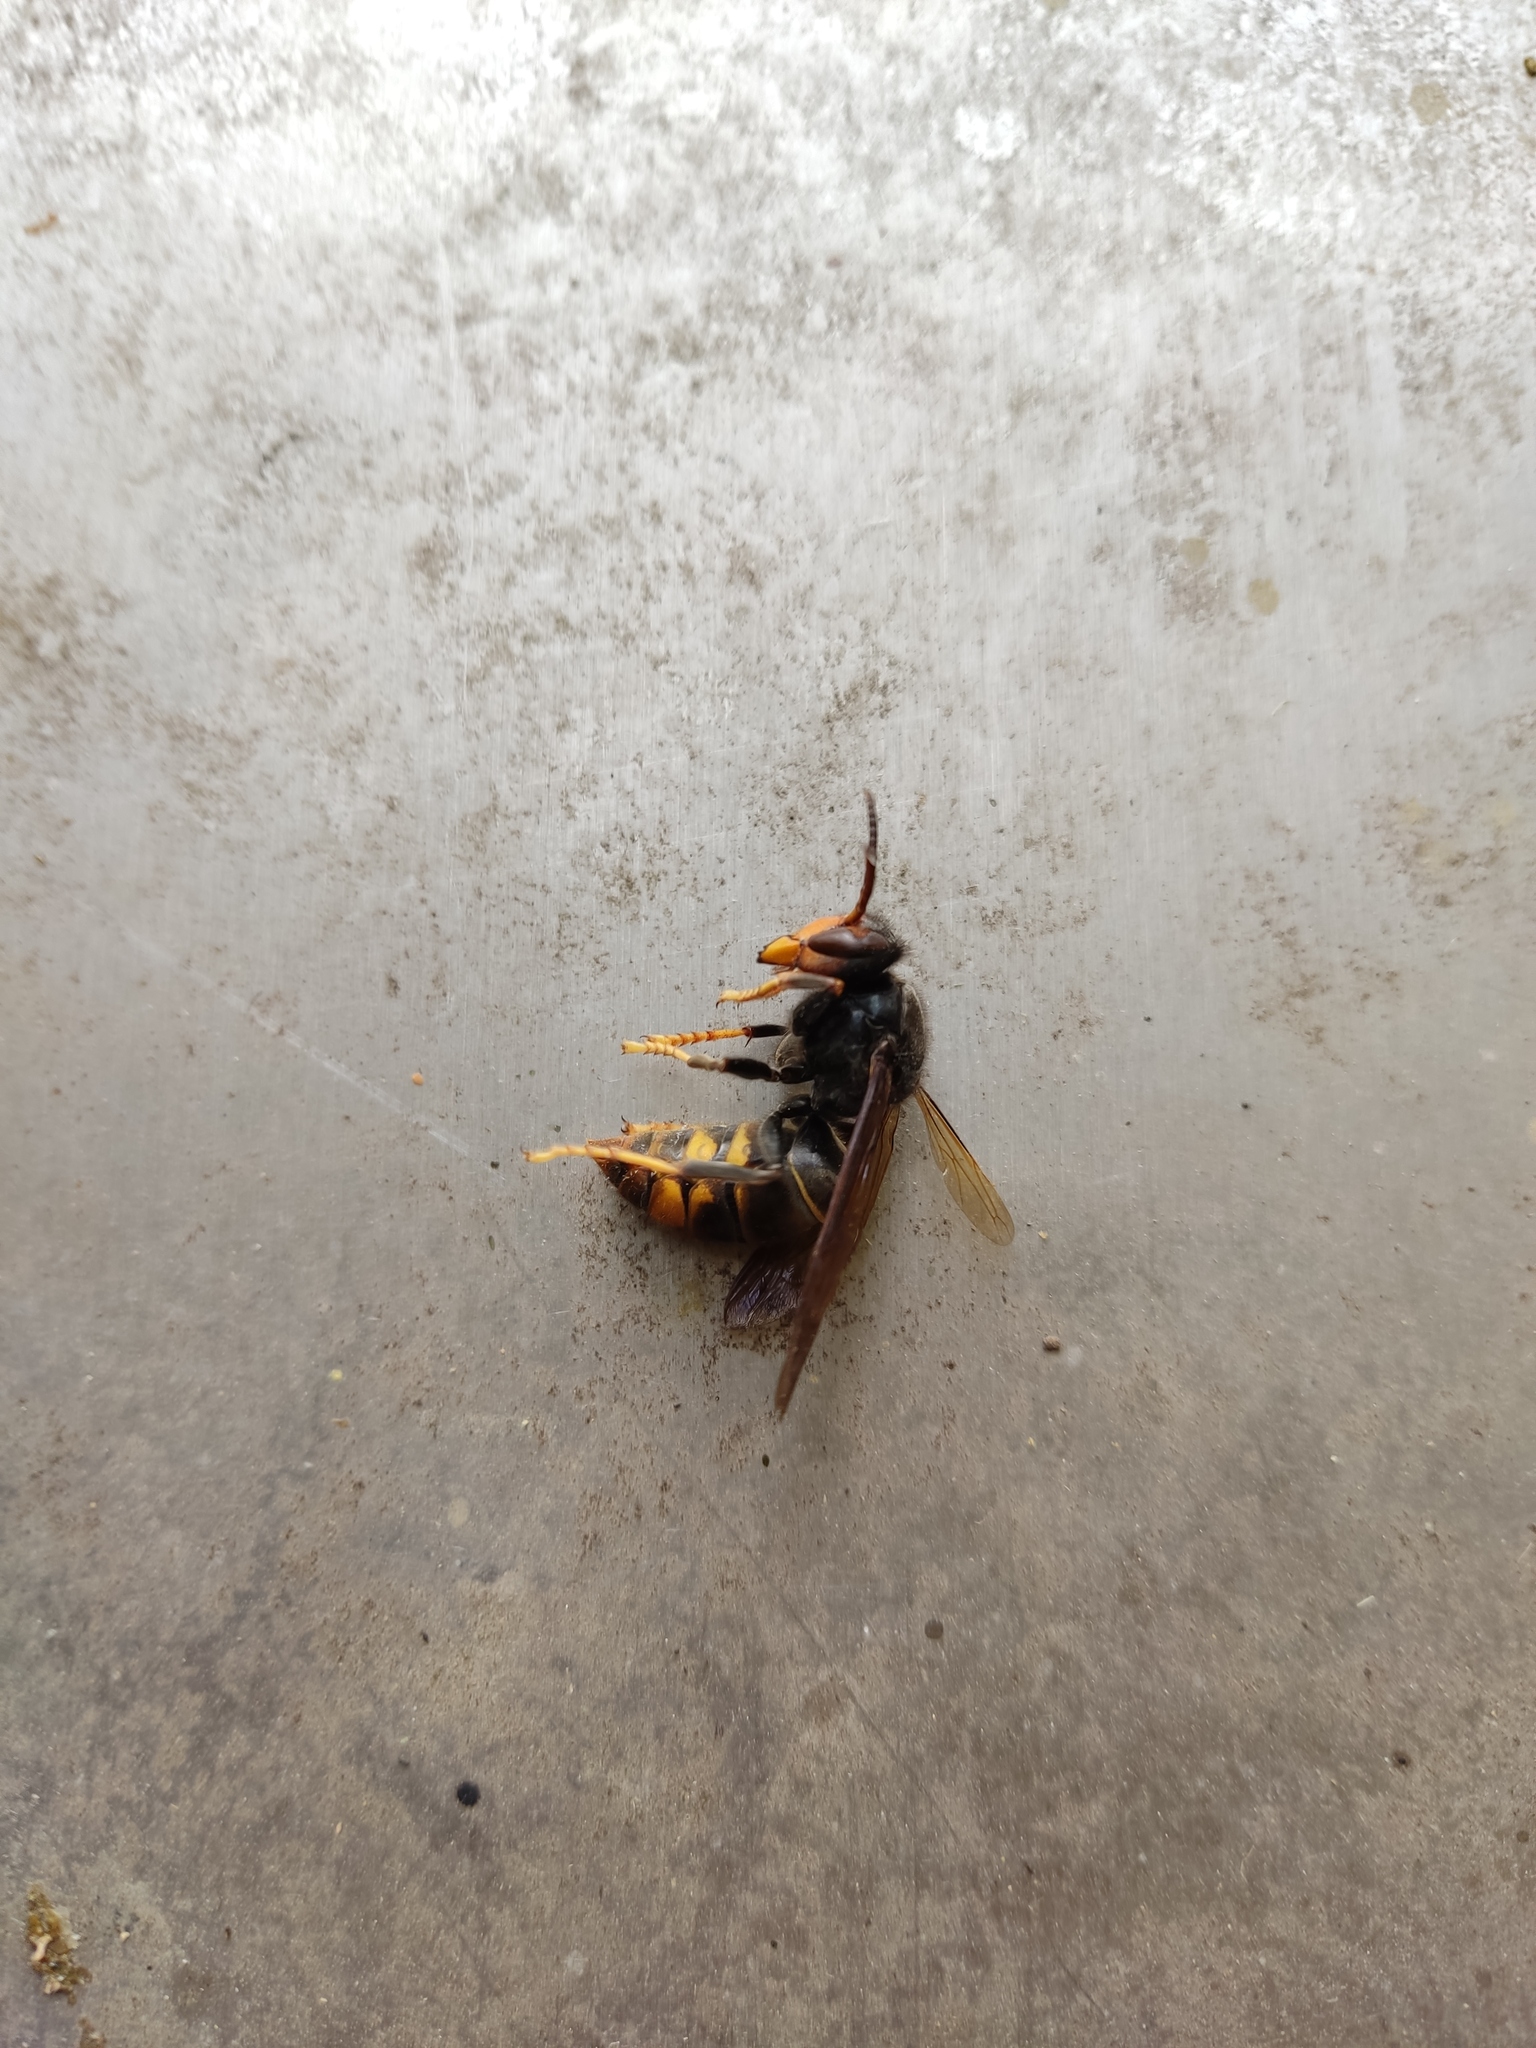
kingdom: Animalia
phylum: Arthropoda
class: Insecta
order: Hymenoptera
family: Vespidae
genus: Vespa
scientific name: Vespa velutina
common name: Asian hornet
